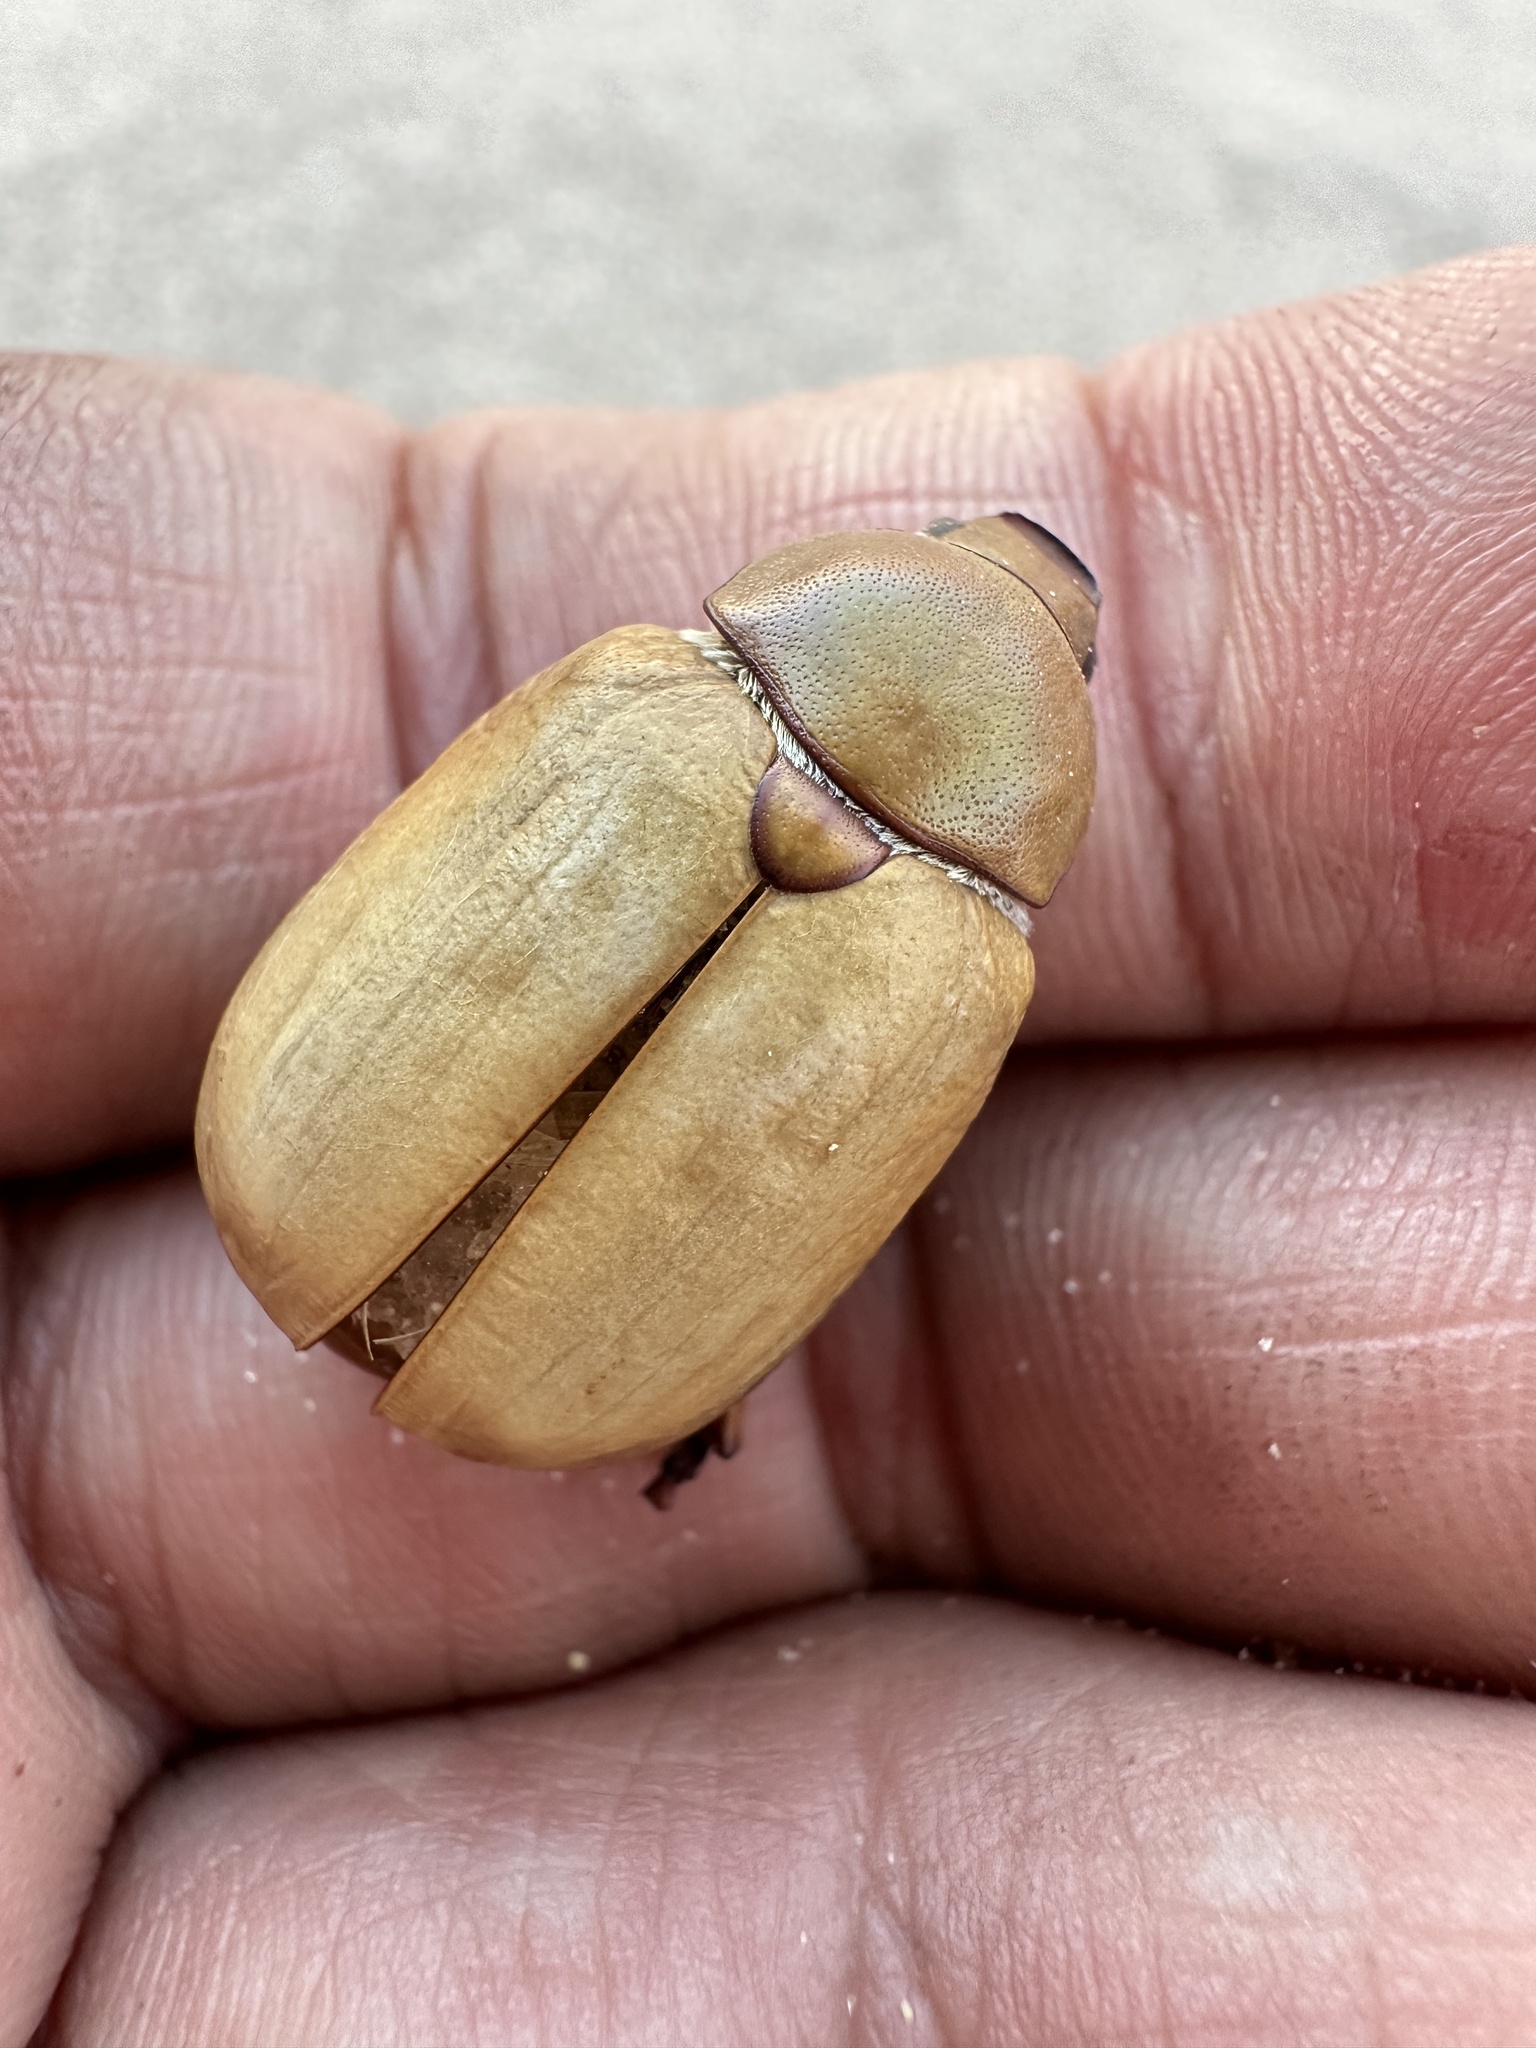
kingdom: Animalia
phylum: Arthropoda
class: Insecta
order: Coleoptera
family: Scarabaeidae
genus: Pseudocotalpa
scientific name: Pseudocotalpa giulianii
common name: Giuliani's dune scarab beetle
